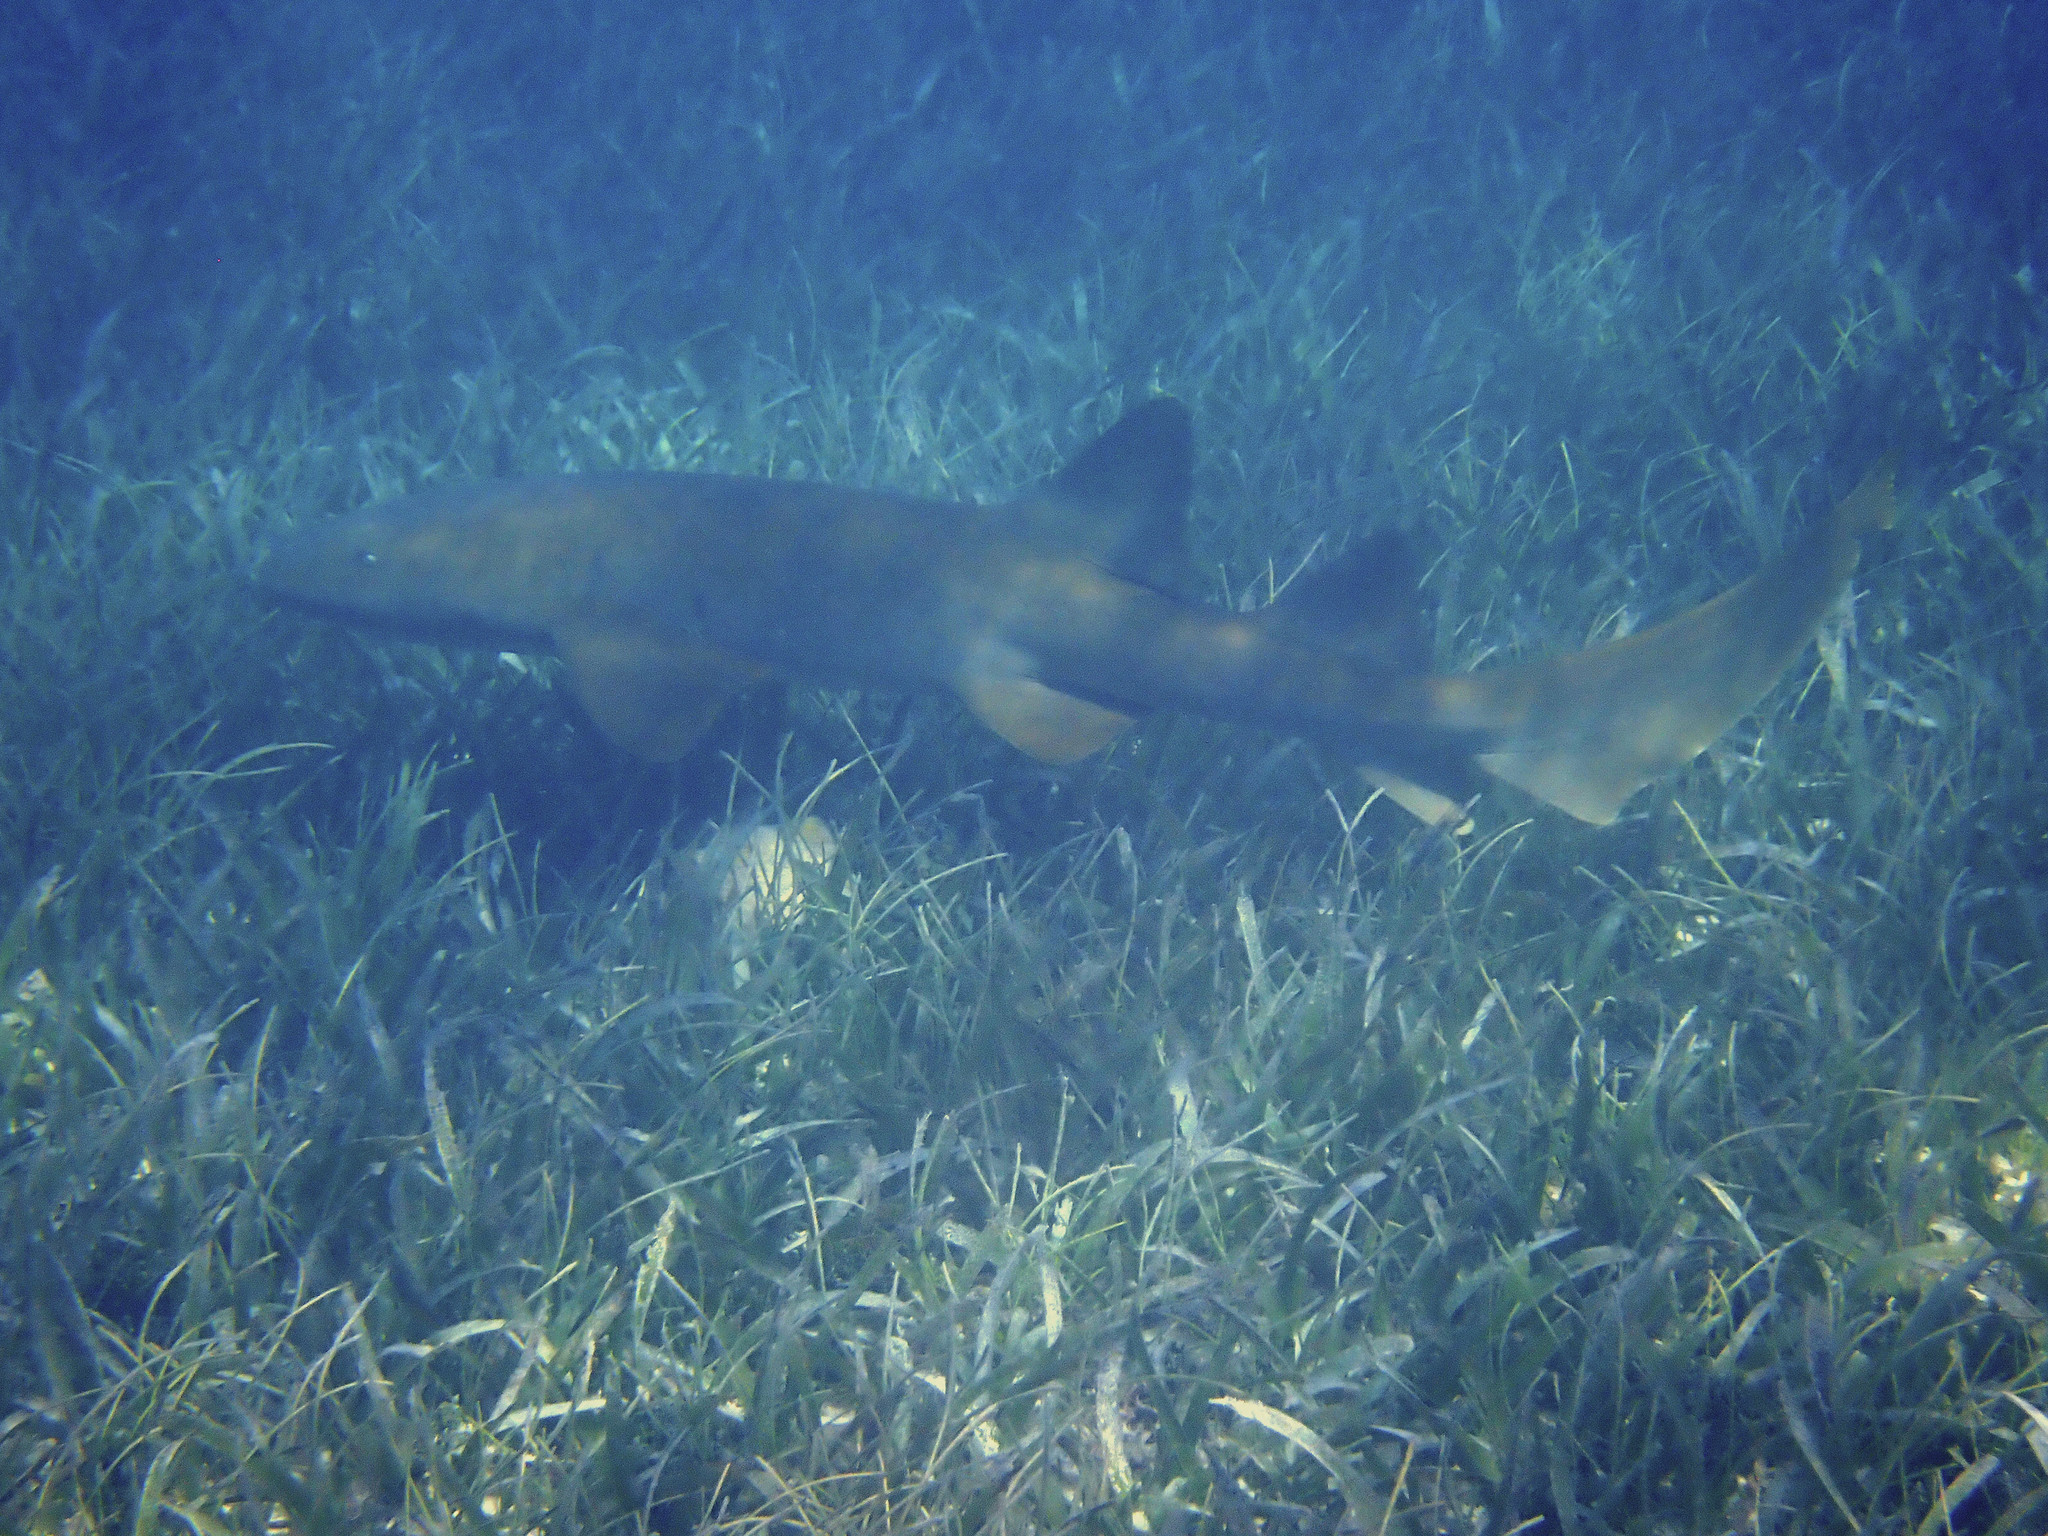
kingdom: Animalia
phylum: Chordata
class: Elasmobranchii
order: Orectolobiformes
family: Ginglymostomatidae
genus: Ginglymostoma
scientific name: Ginglymostoma cirratum
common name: Nurse shark
